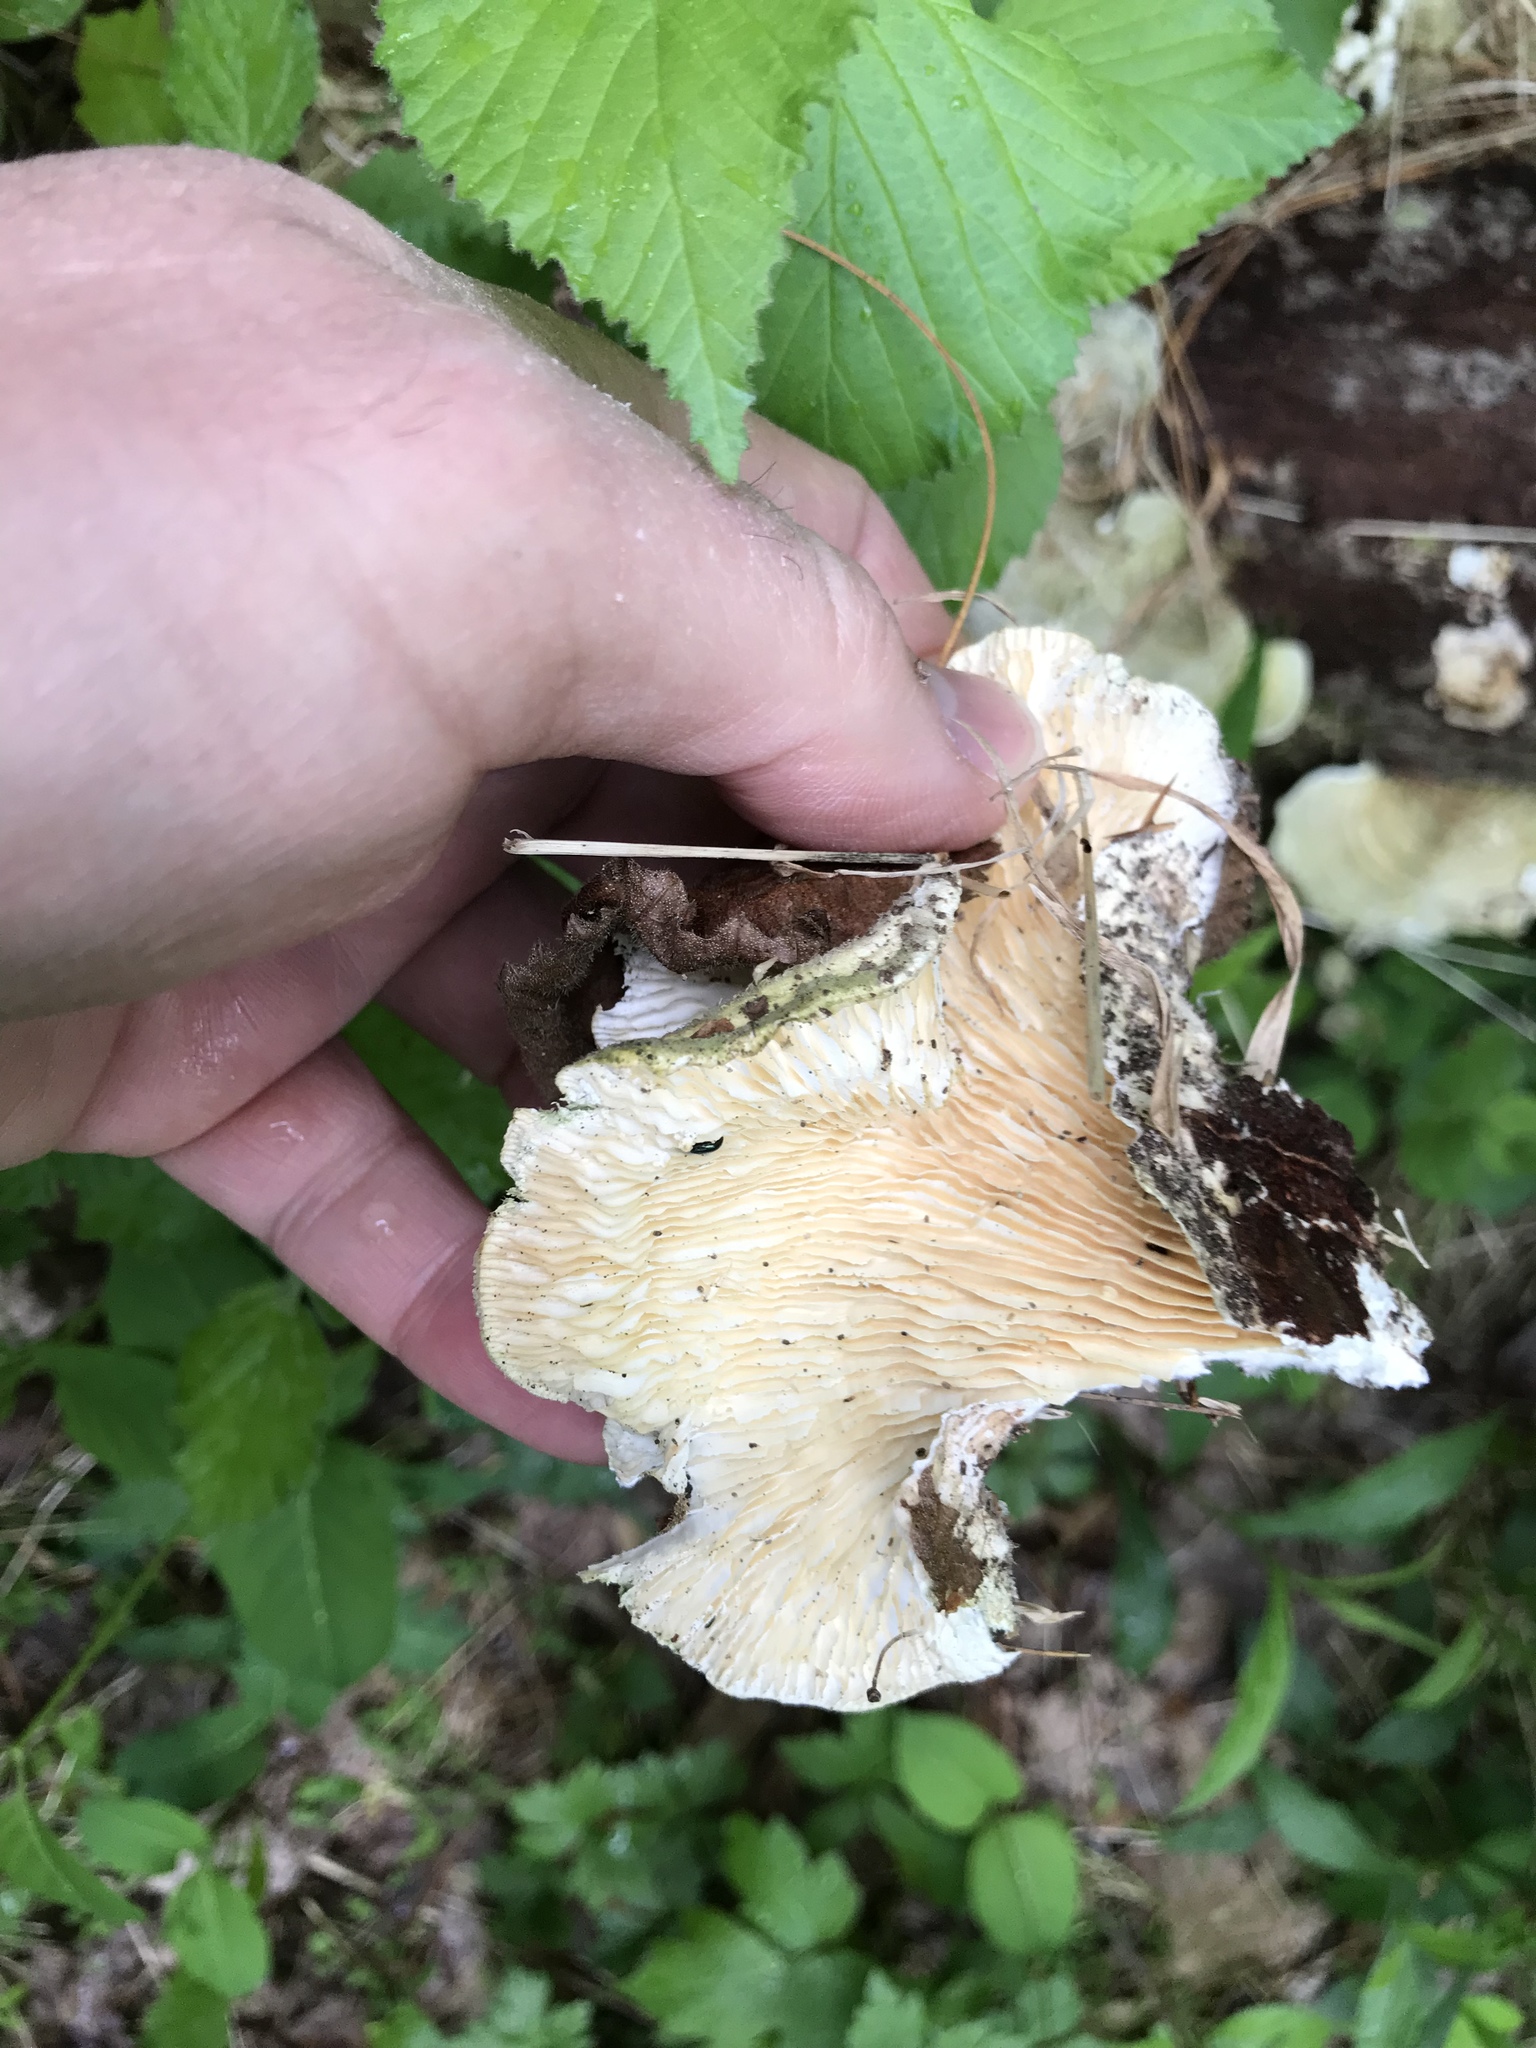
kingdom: Fungi
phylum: Basidiomycota
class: Agaricomycetes
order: Polyporales
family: Polyporaceae
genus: Lenzites
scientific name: Lenzites betulinus
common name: Birch mazegill
